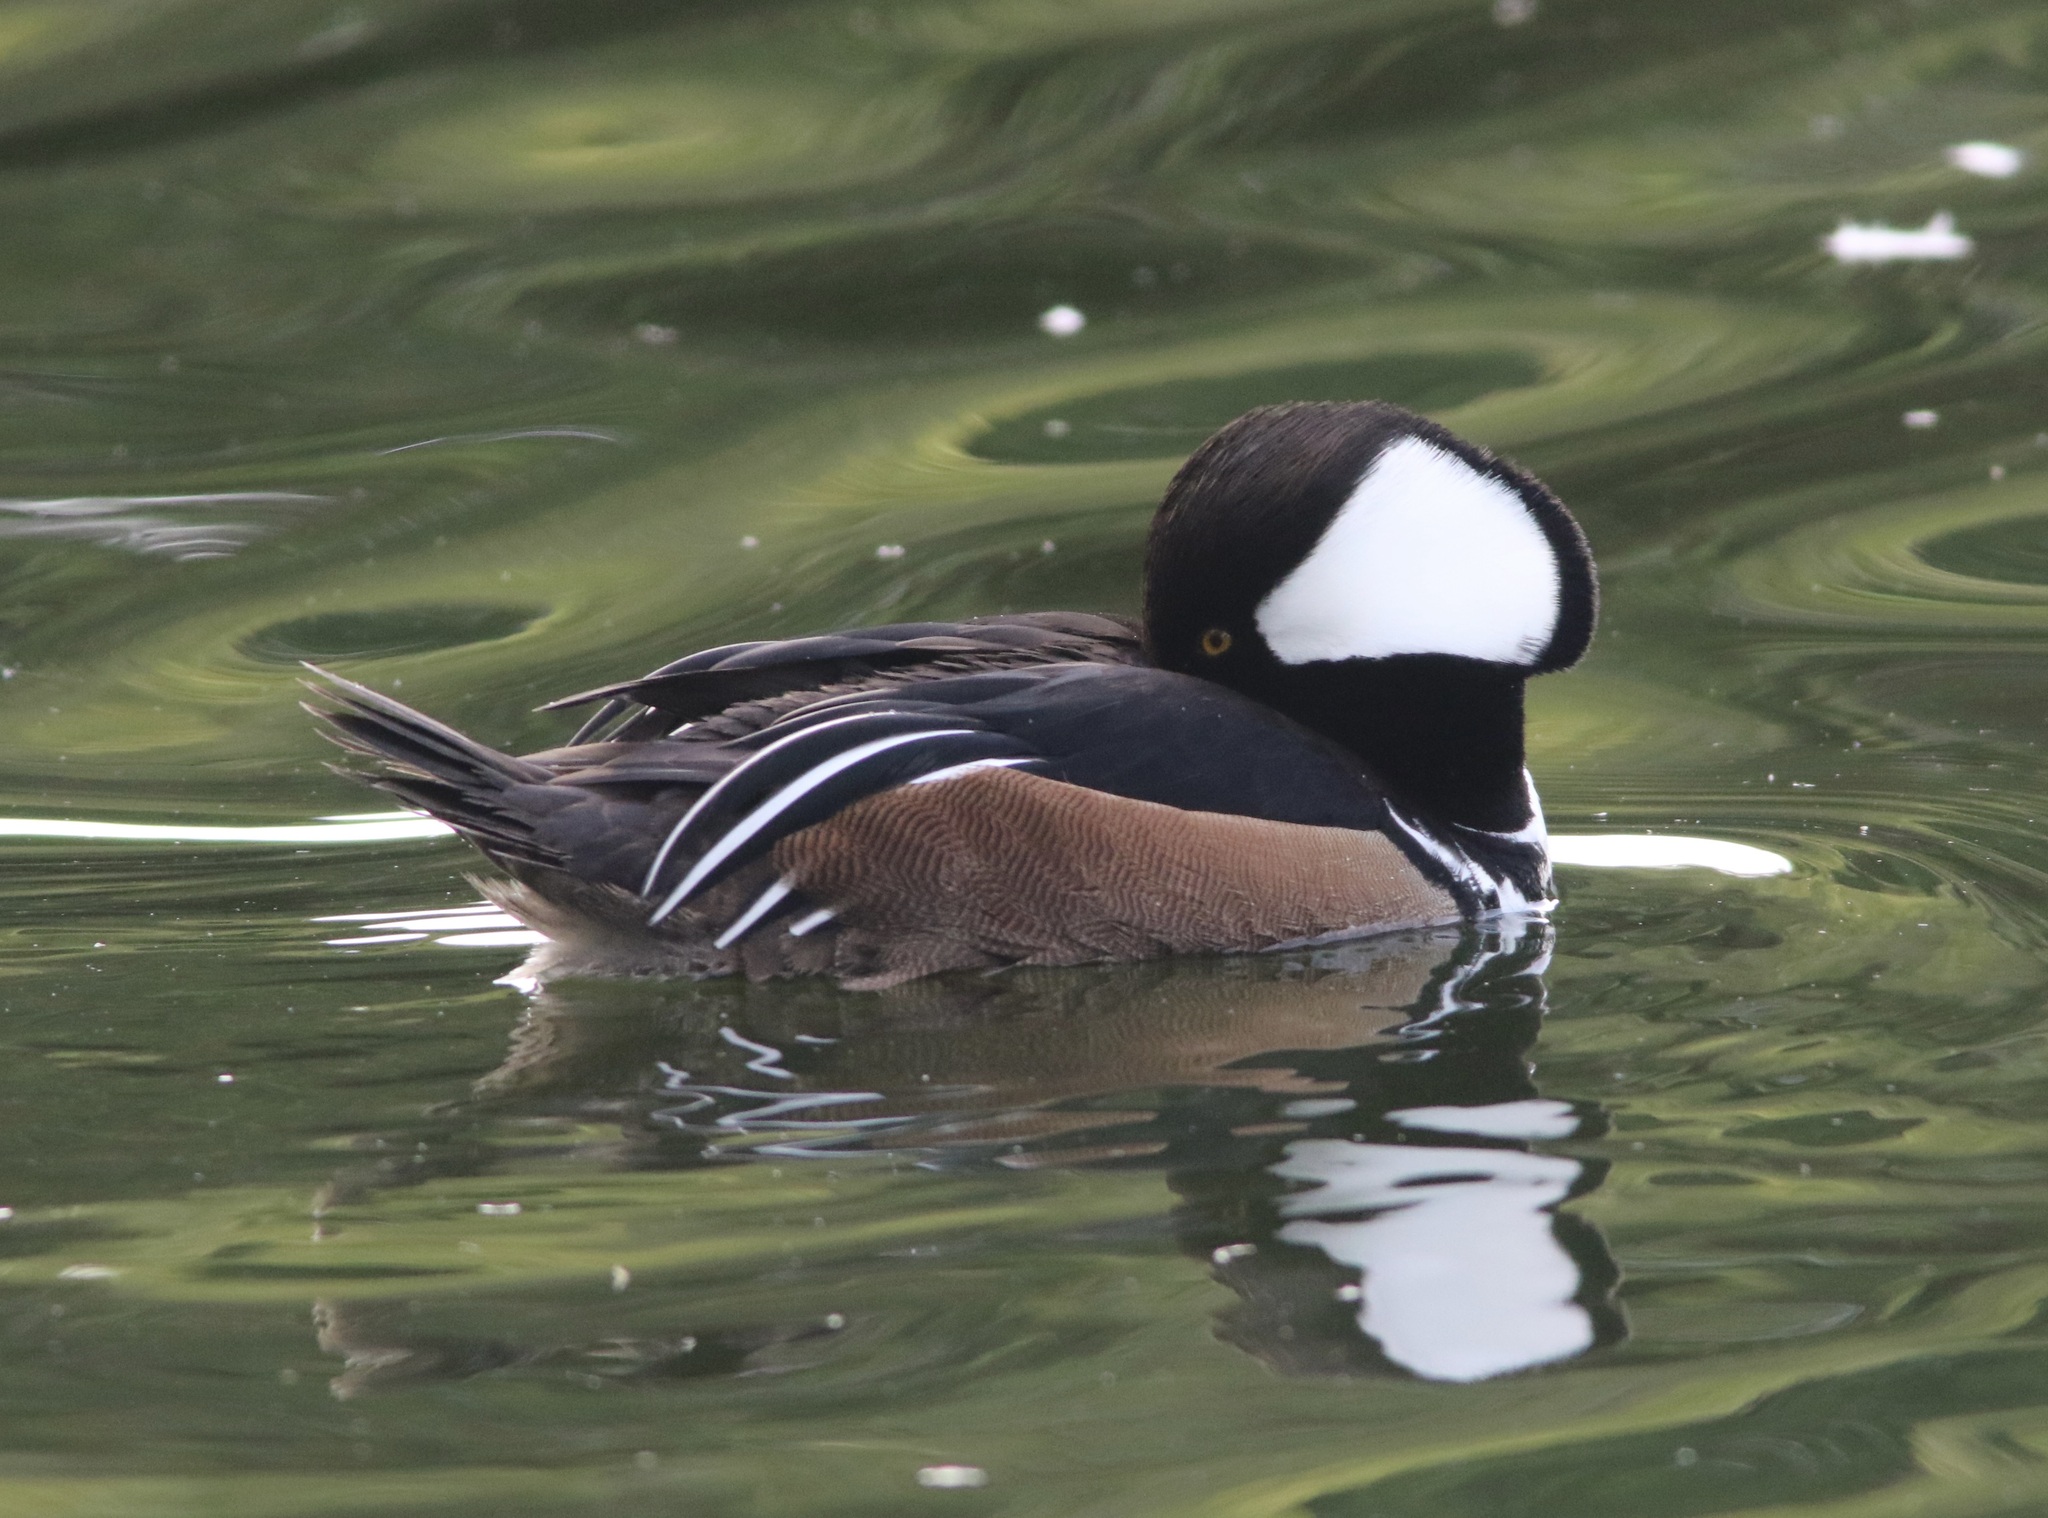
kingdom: Animalia
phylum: Chordata
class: Aves
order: Anseriformes
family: Anatidae
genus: Lophodytes
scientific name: Lophodytes cucullatus
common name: Hooded merganser
